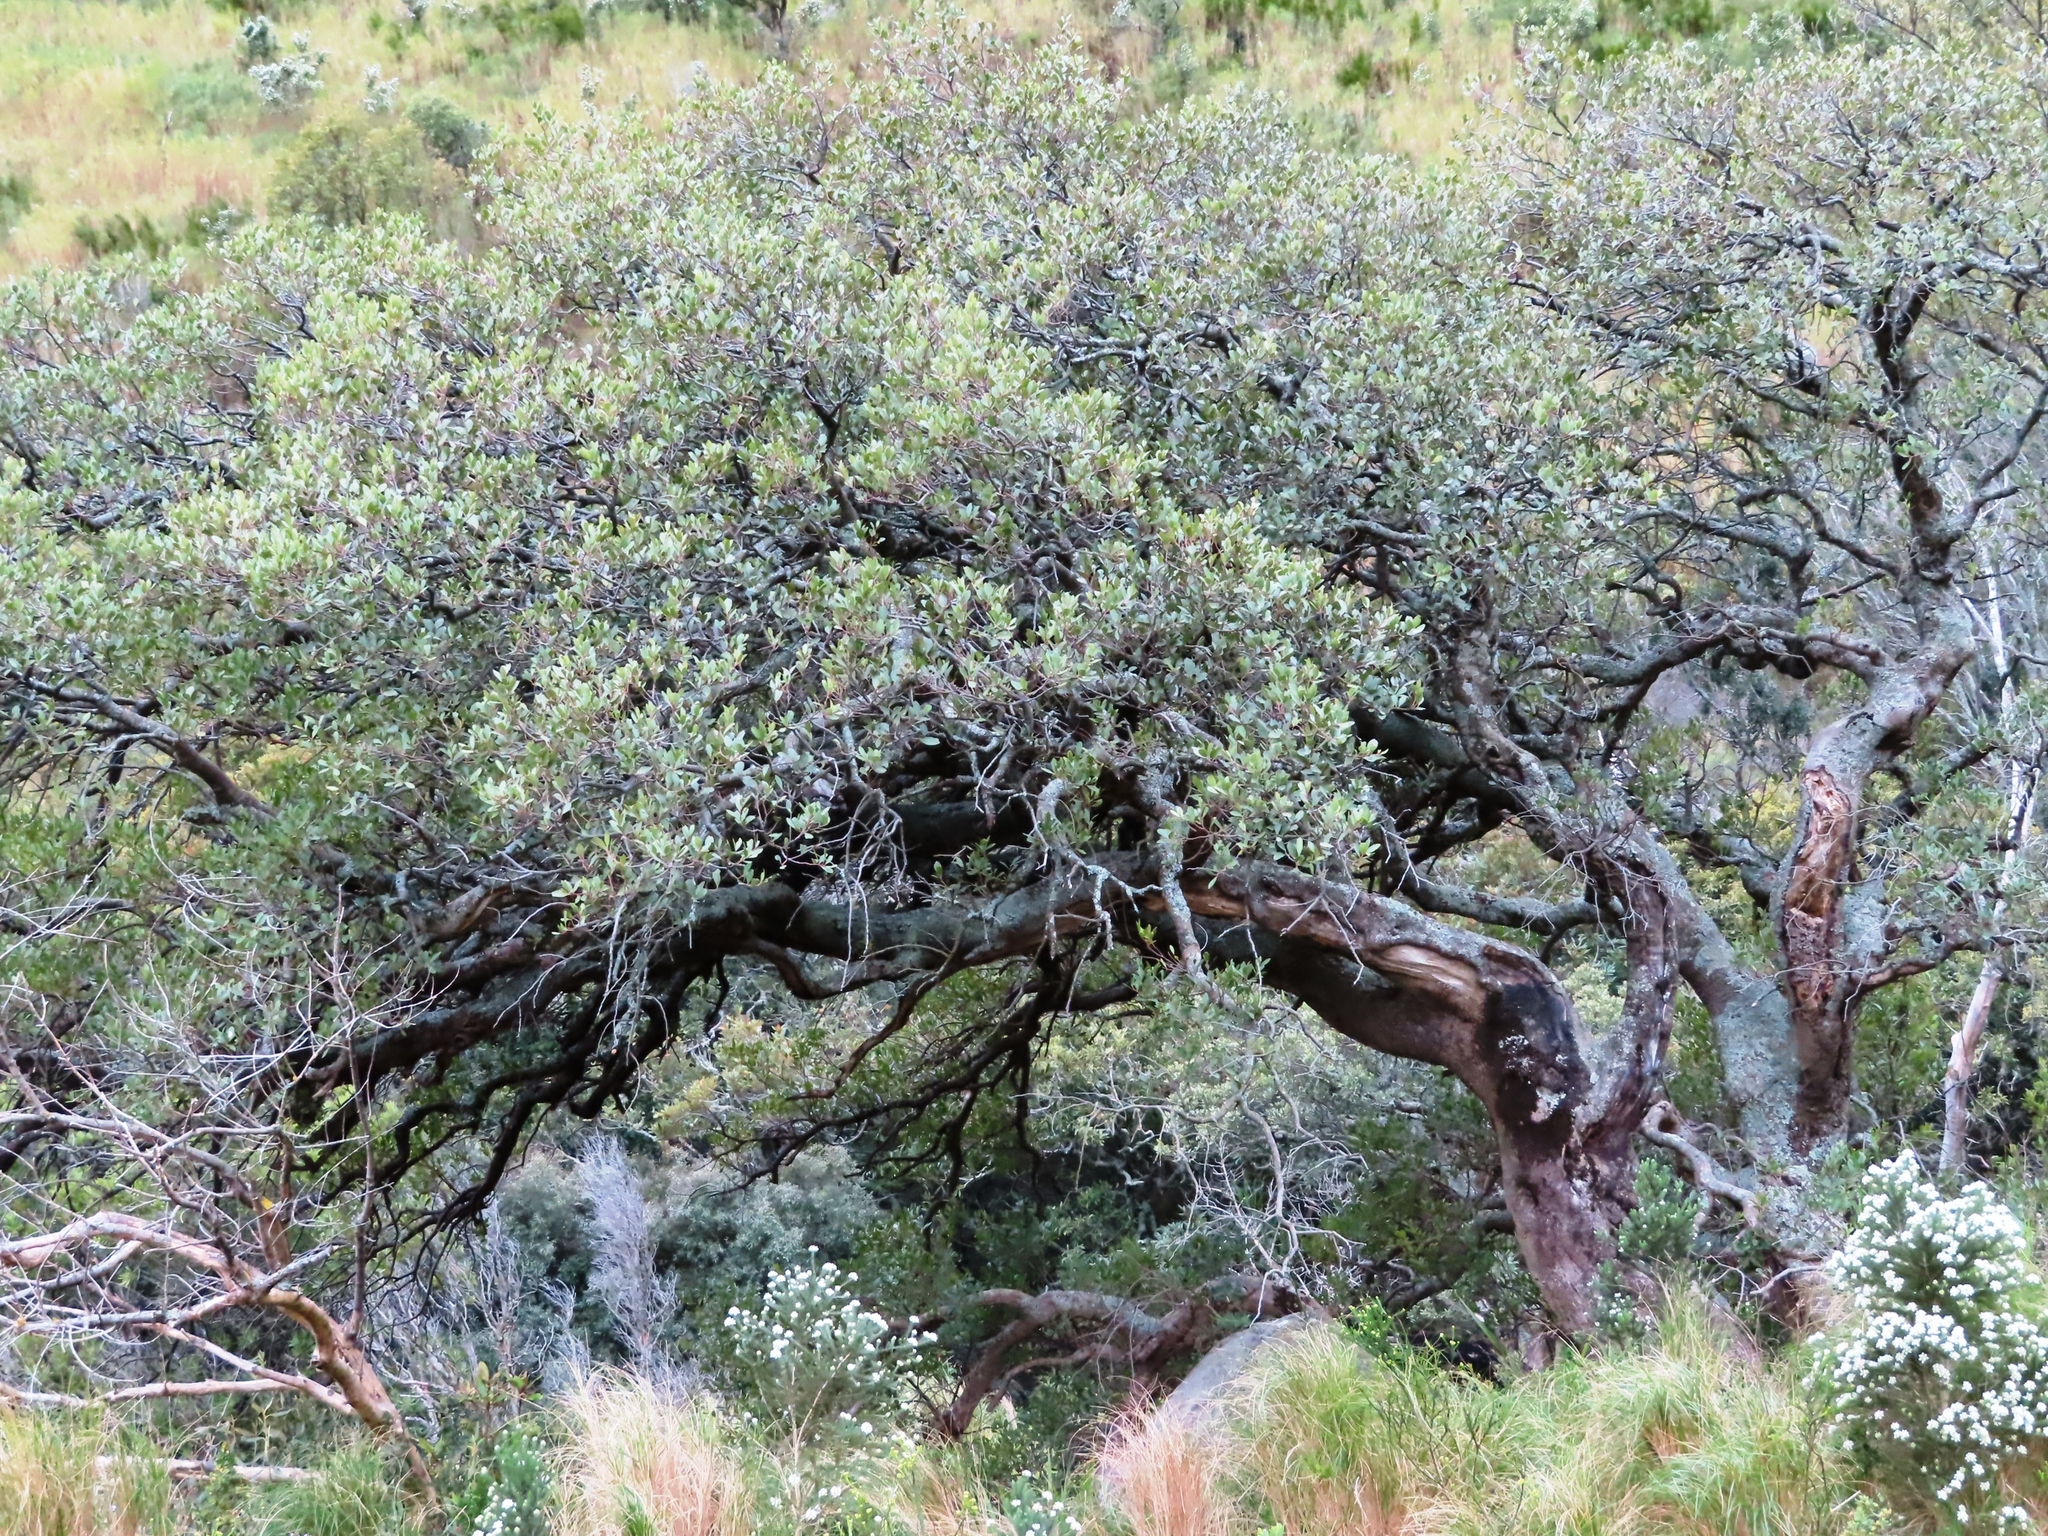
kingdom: Plantae
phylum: Tracheophyta
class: Magnoliopsida
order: Celastrales
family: Celastraceae
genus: Gymnosporia
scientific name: Gymnosporia laurina
